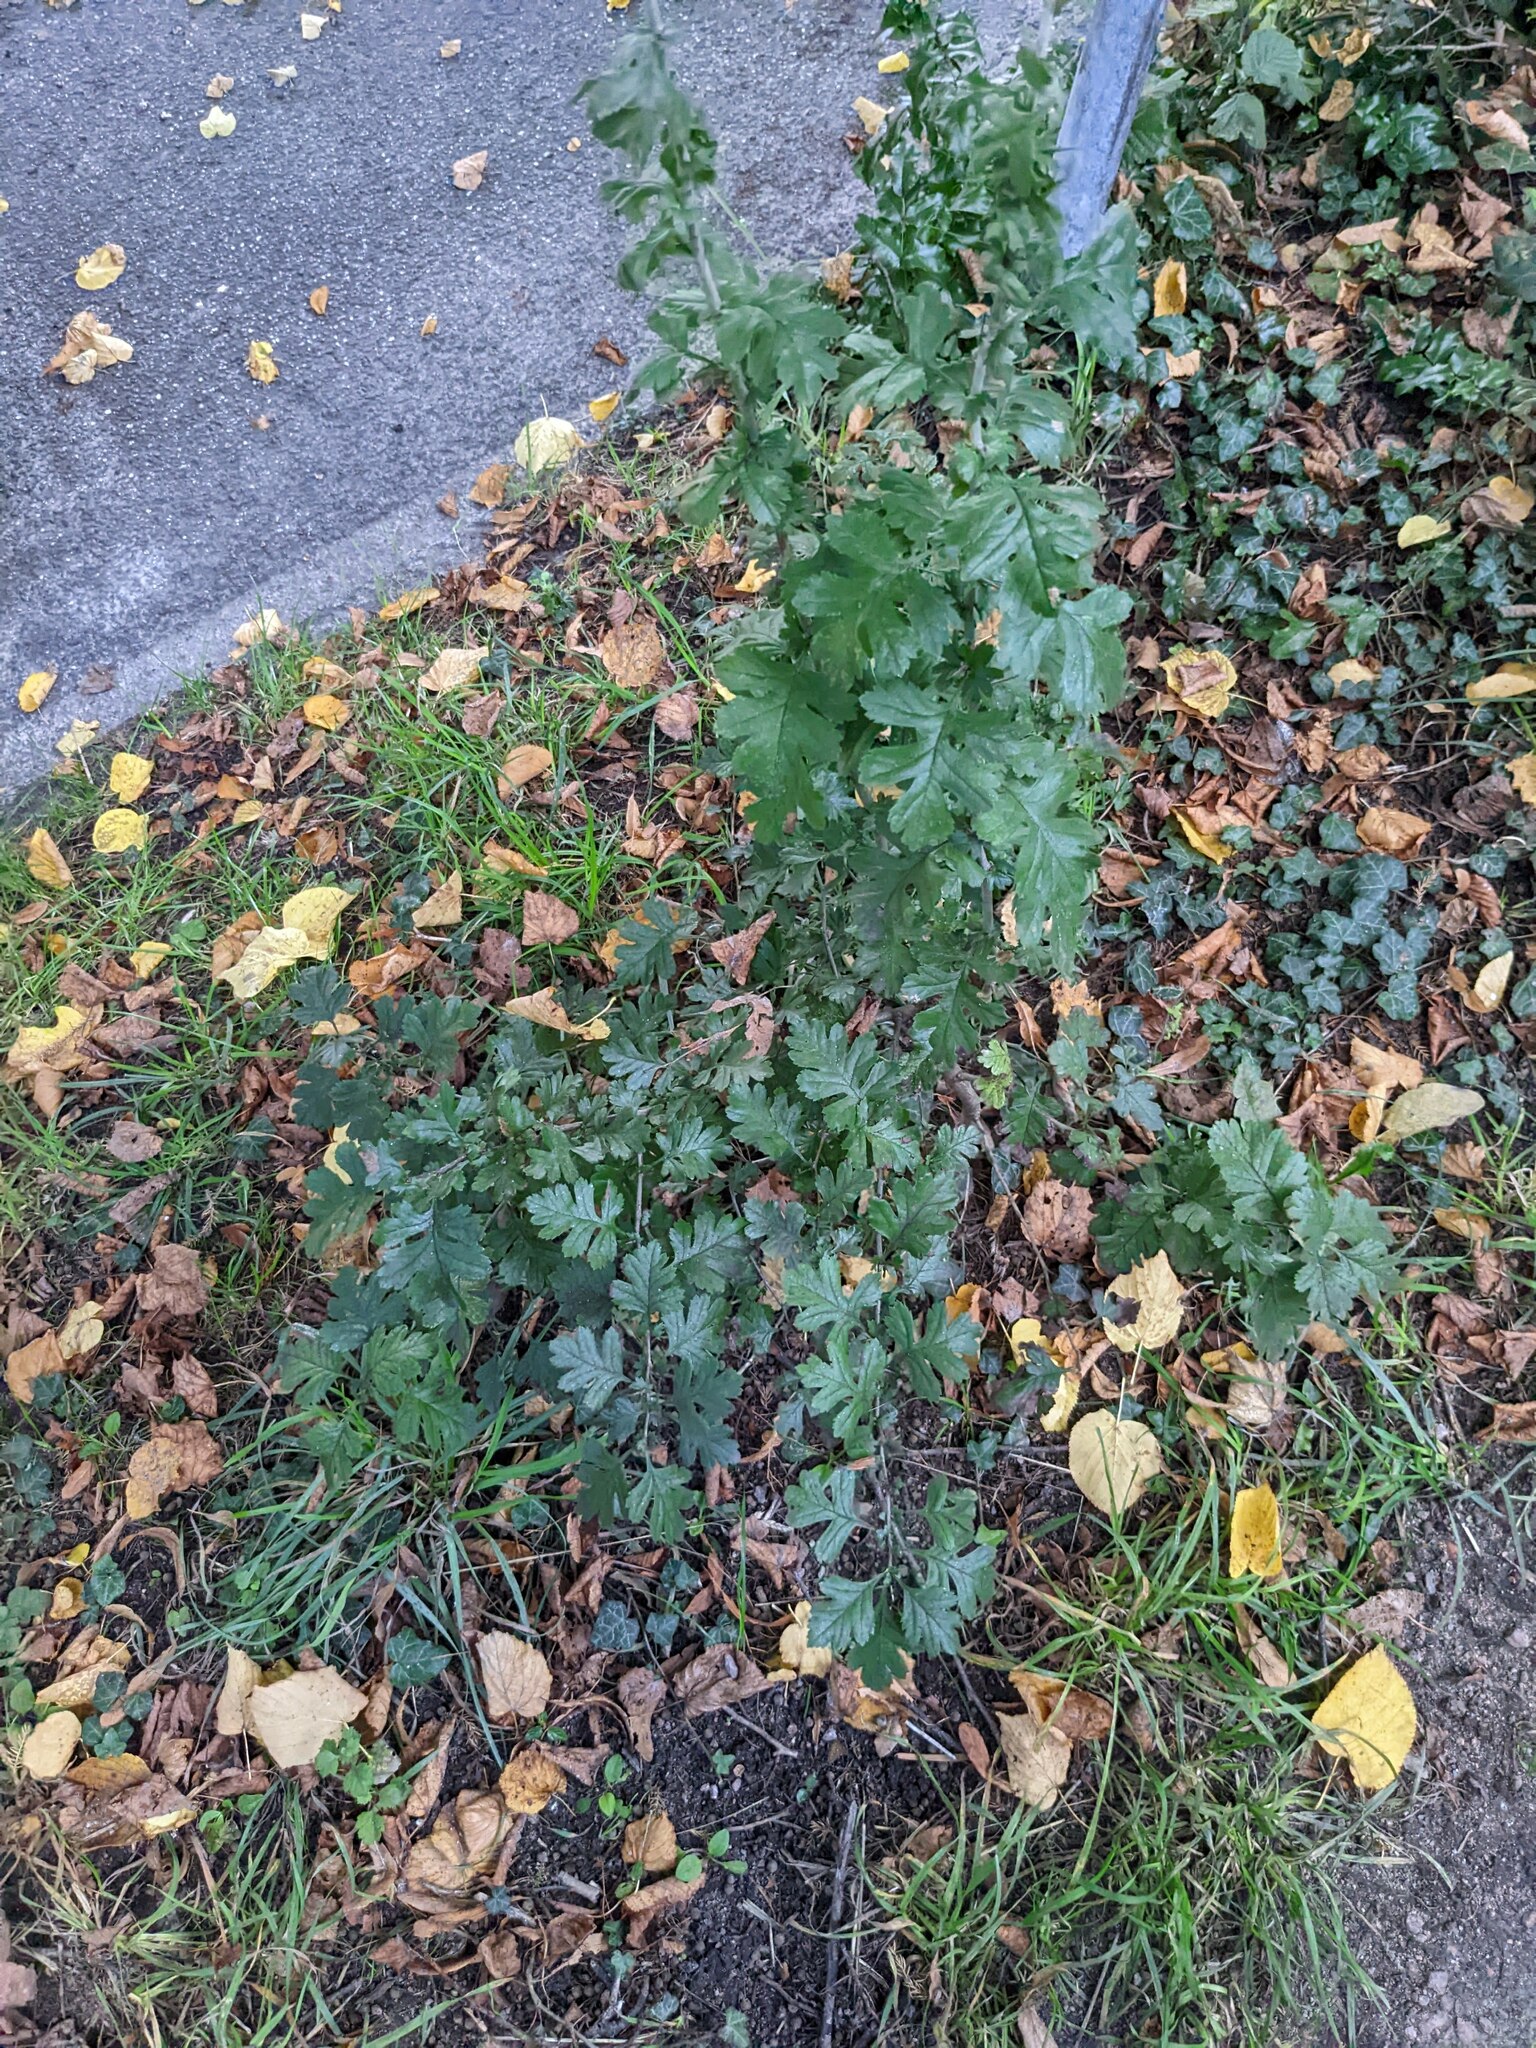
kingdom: Plantae
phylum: Tracheophyta
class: Magnoliopsida
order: Rosales
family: Rosaceae
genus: Crataegus
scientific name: Crataegus monogyna
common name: Hawthorn
